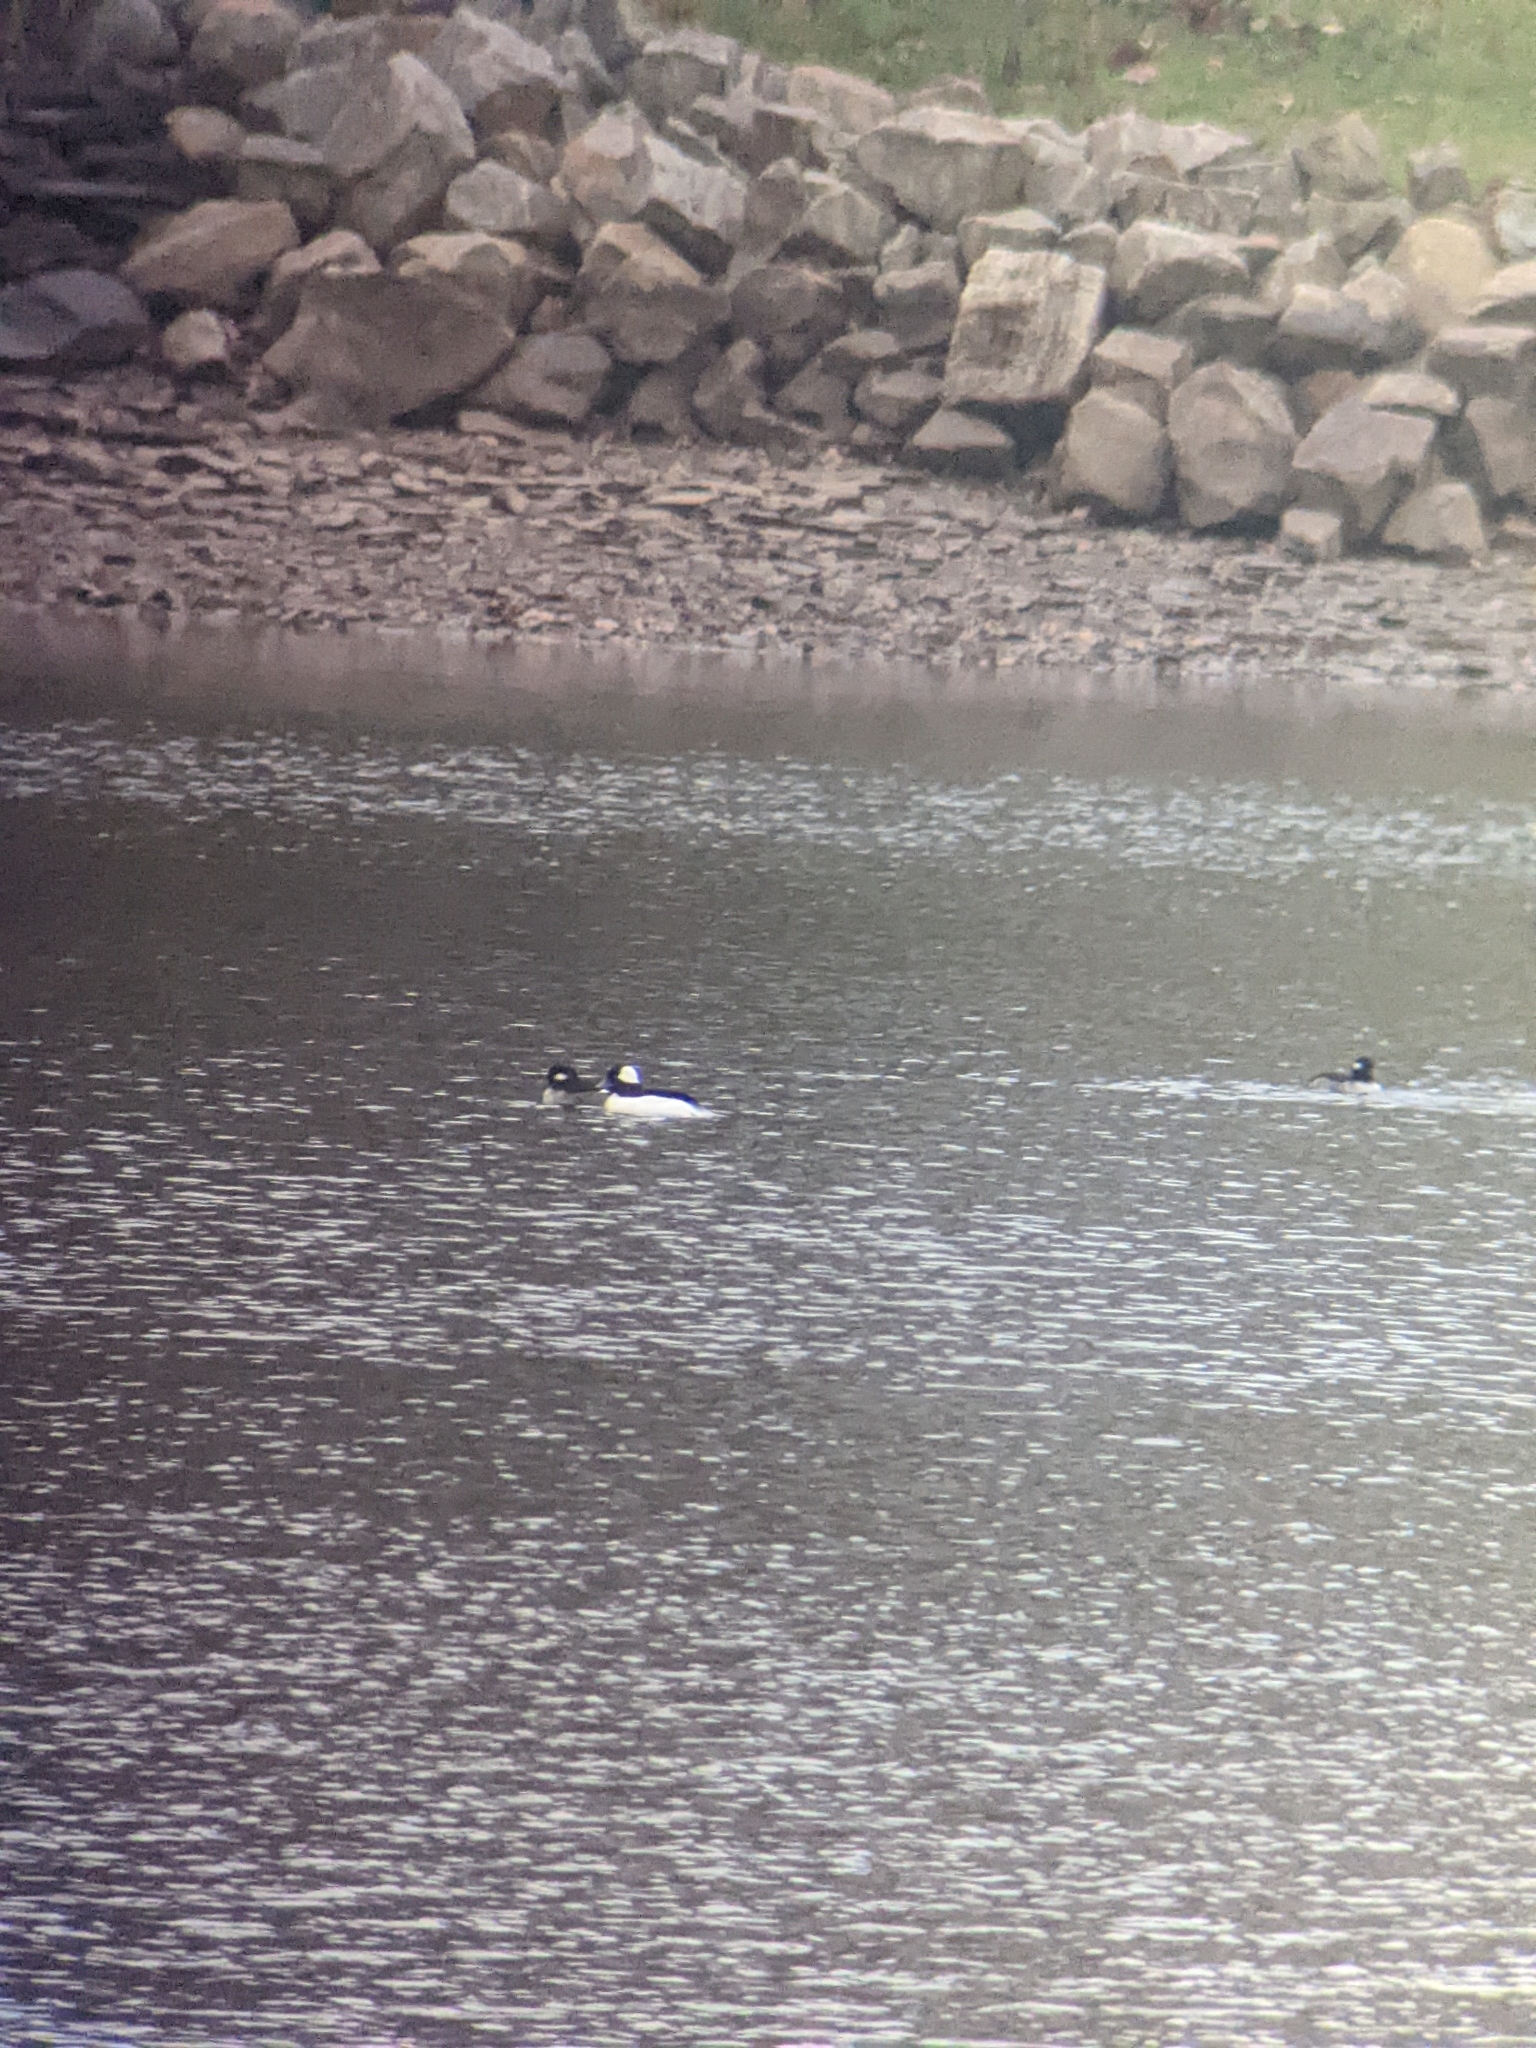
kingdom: Animalia
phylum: Chordata
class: Aves
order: Anseriformes
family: Anatidae
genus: Bucephala
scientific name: Bucephala albeola
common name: Bufflehead
